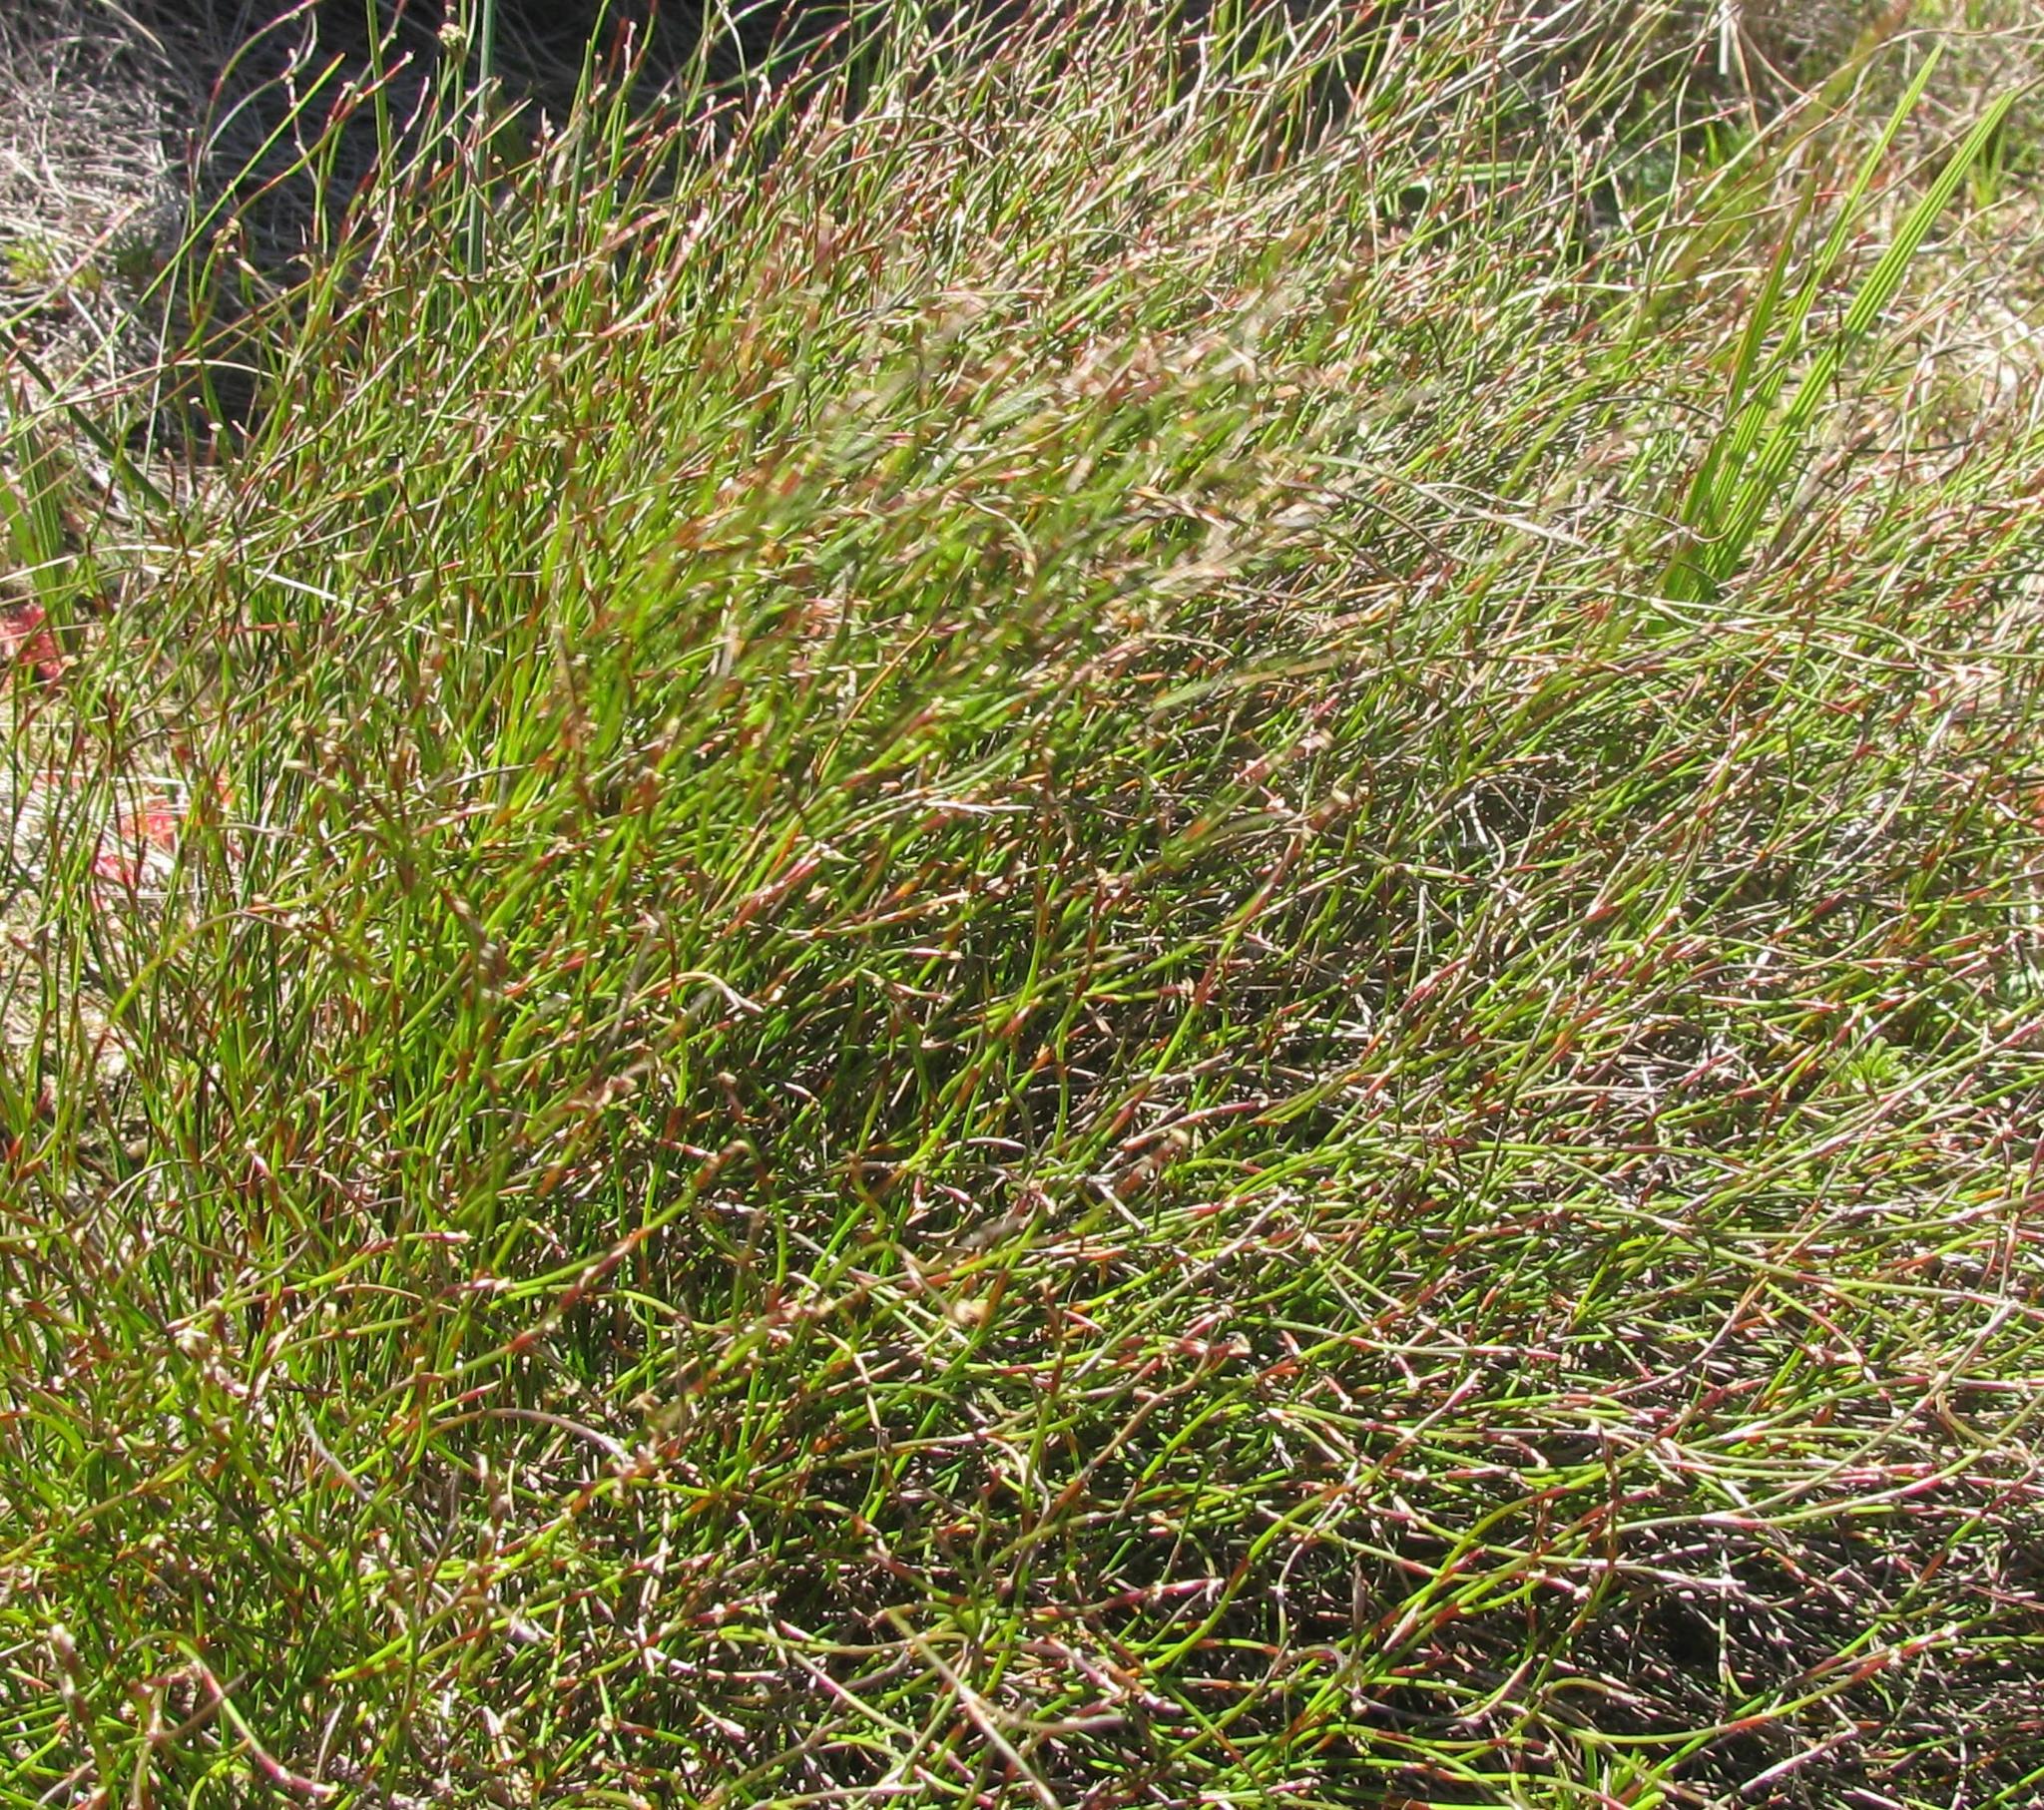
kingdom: Plantae
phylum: Tracheophyta
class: Liliopsida
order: Poales
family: Restionaceae
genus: Restio
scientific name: Restio paludosus
